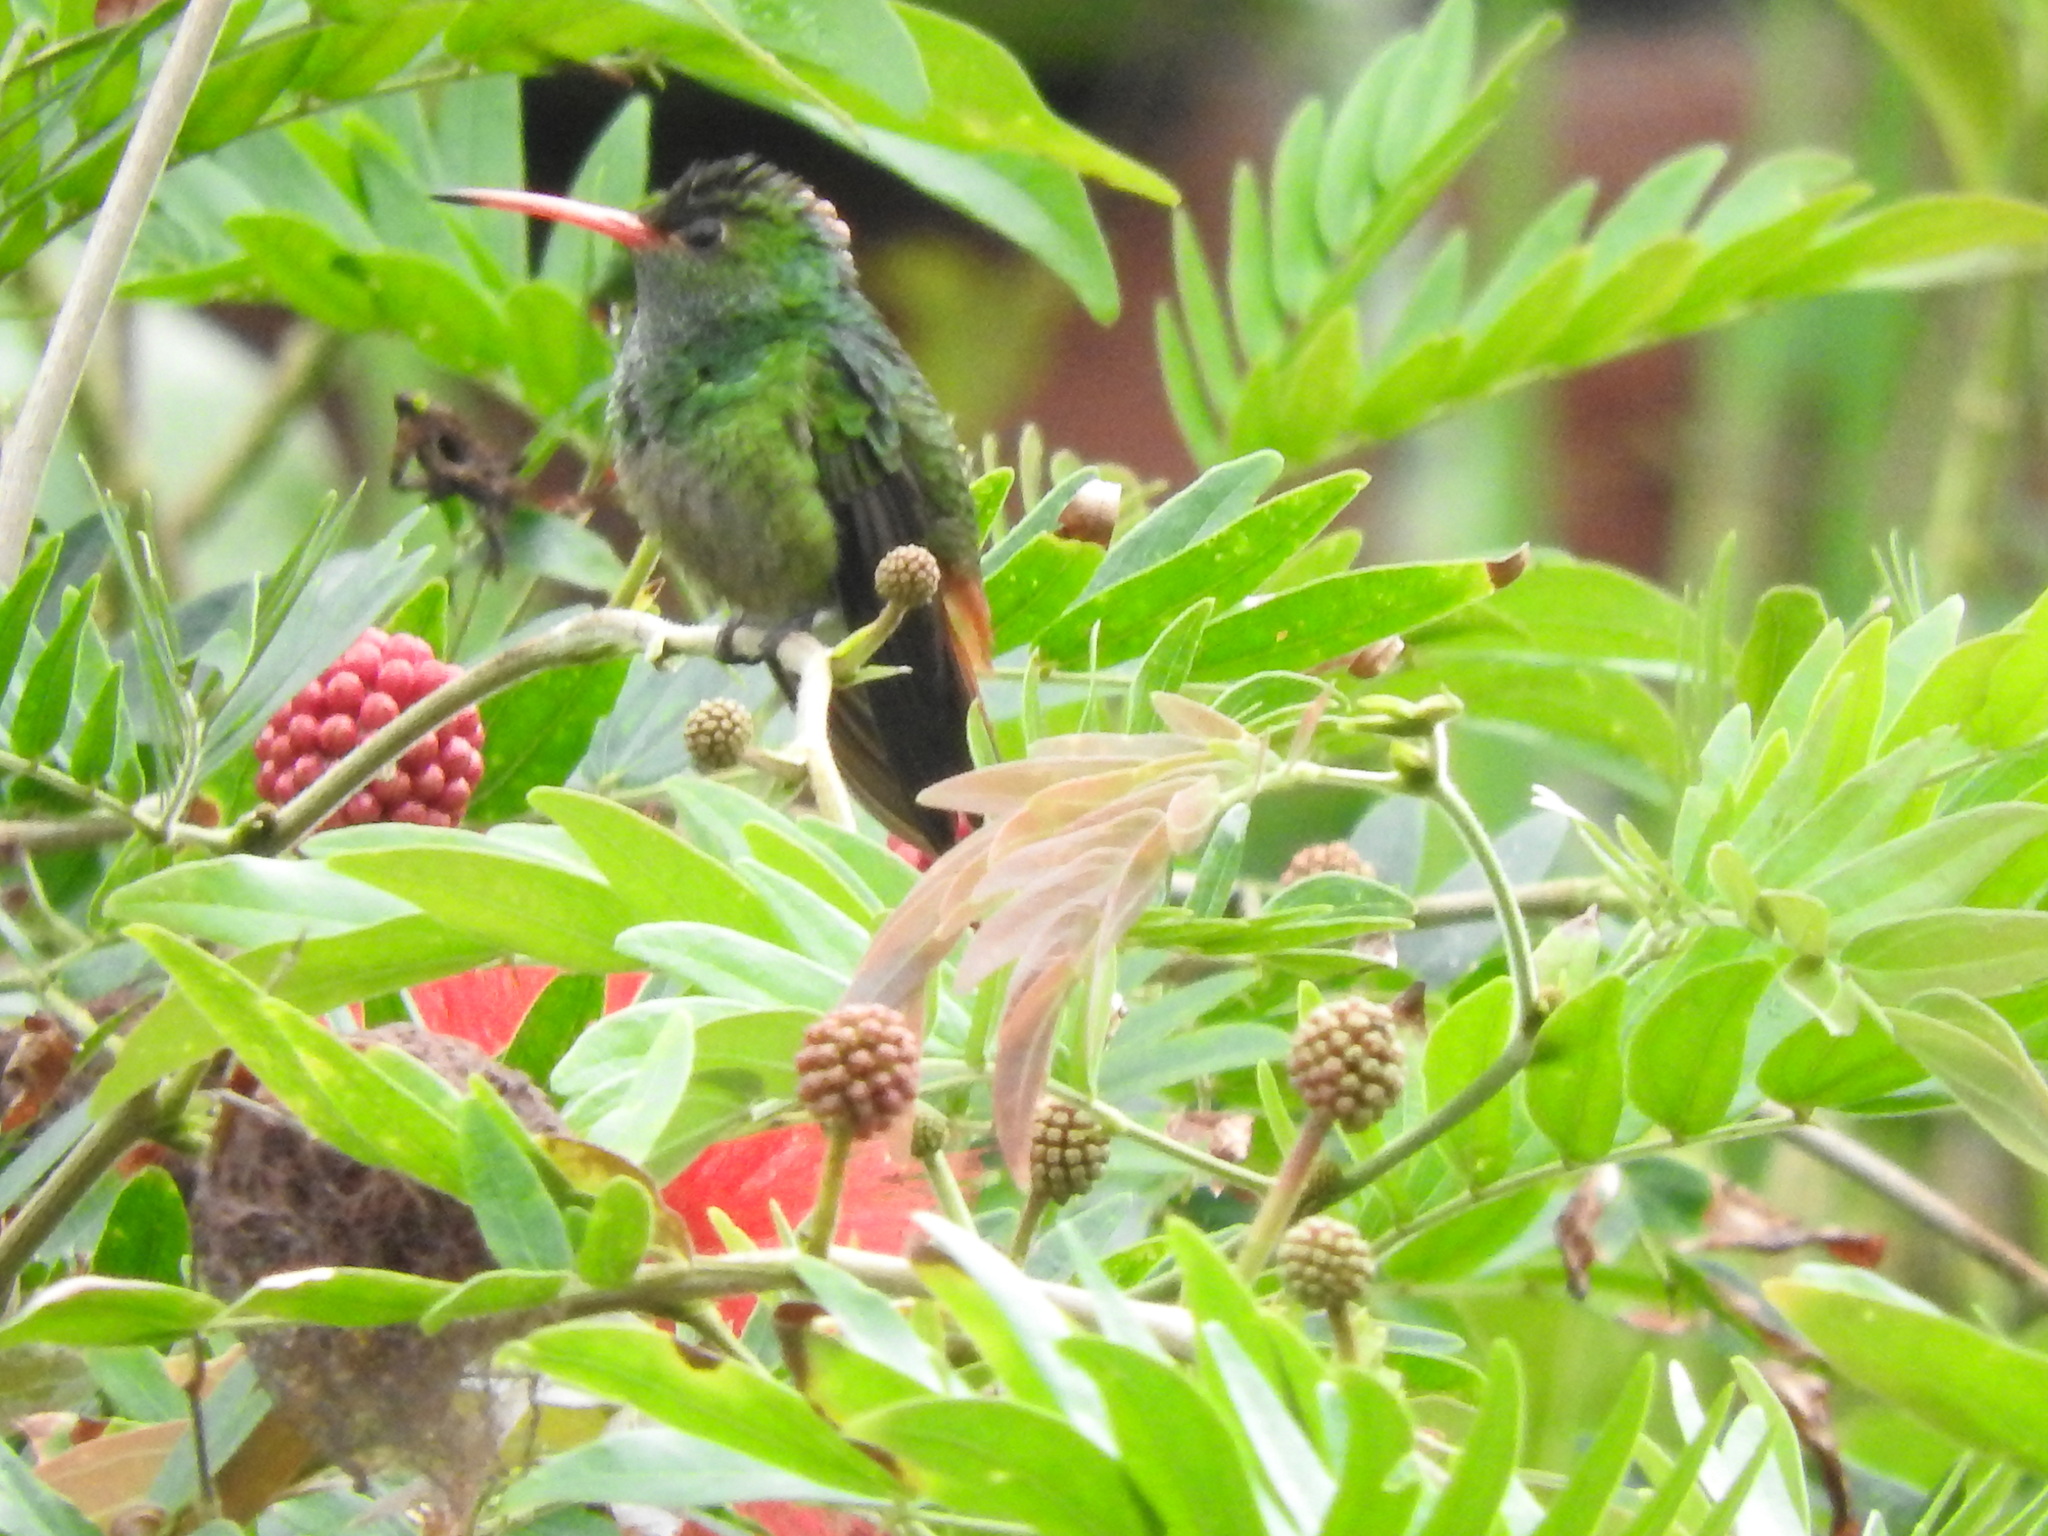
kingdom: Animalia
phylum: Chordata
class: Aves
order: Apodiformes
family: Trochilidae
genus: Amazilia
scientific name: Amazilia tzacatl
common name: Rufous-tailed hummingbird
